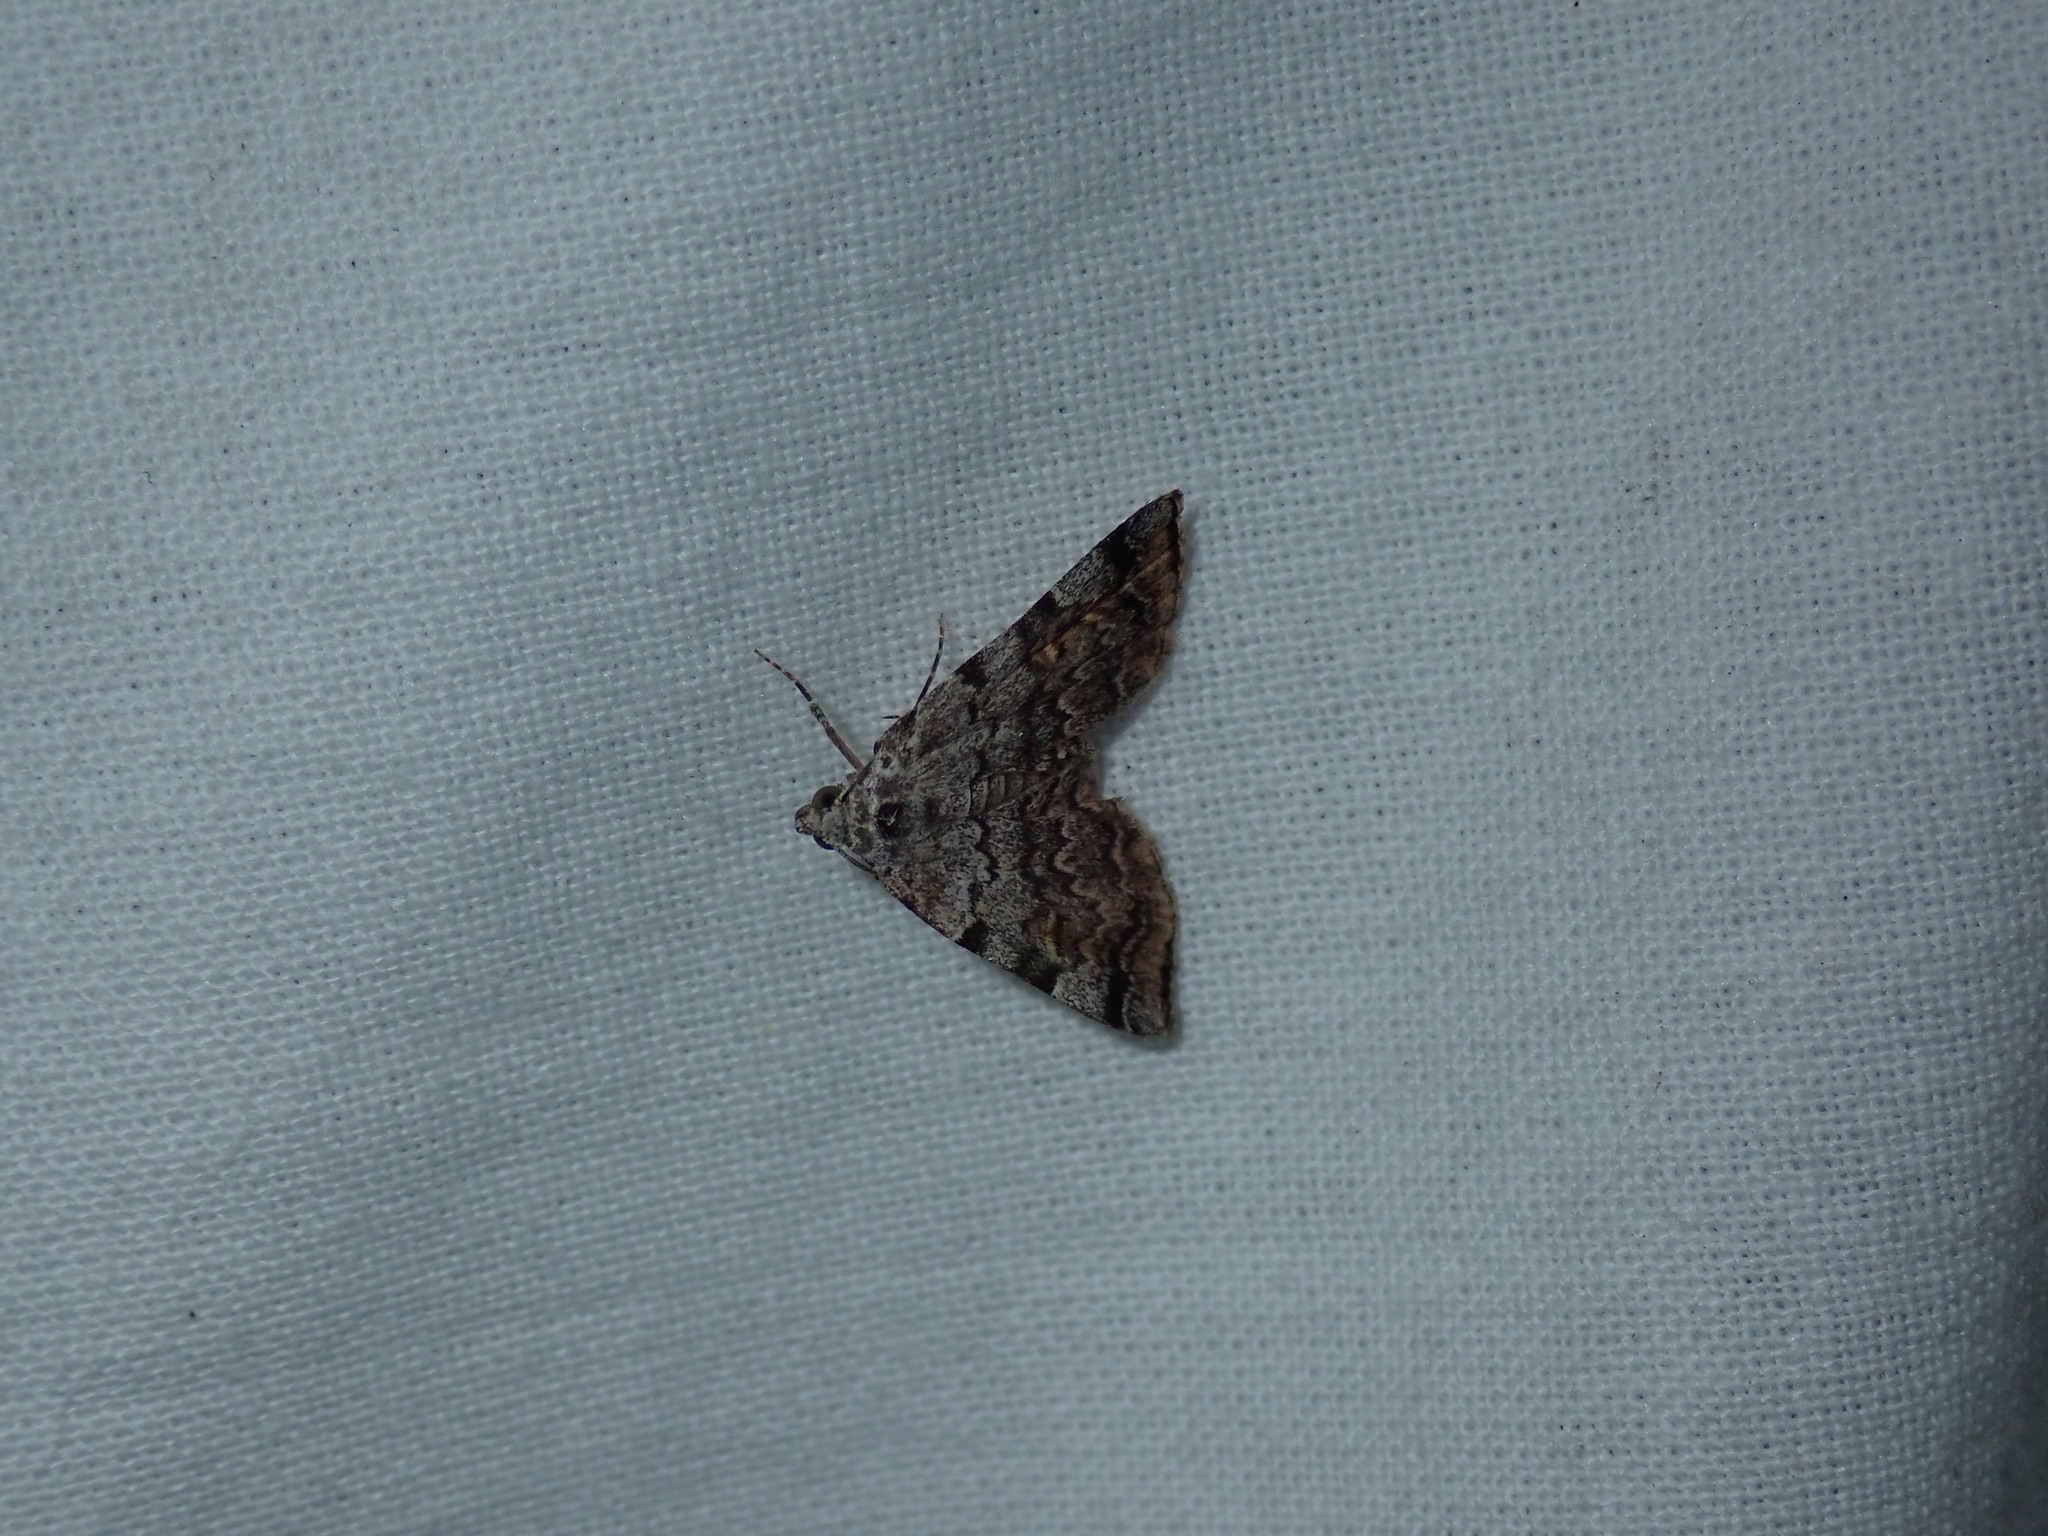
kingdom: Animalia
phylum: Arthropoda
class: Insecta
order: Lepidoptera
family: Erebidae
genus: Idia
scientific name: Idia americalis
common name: American idia moth
